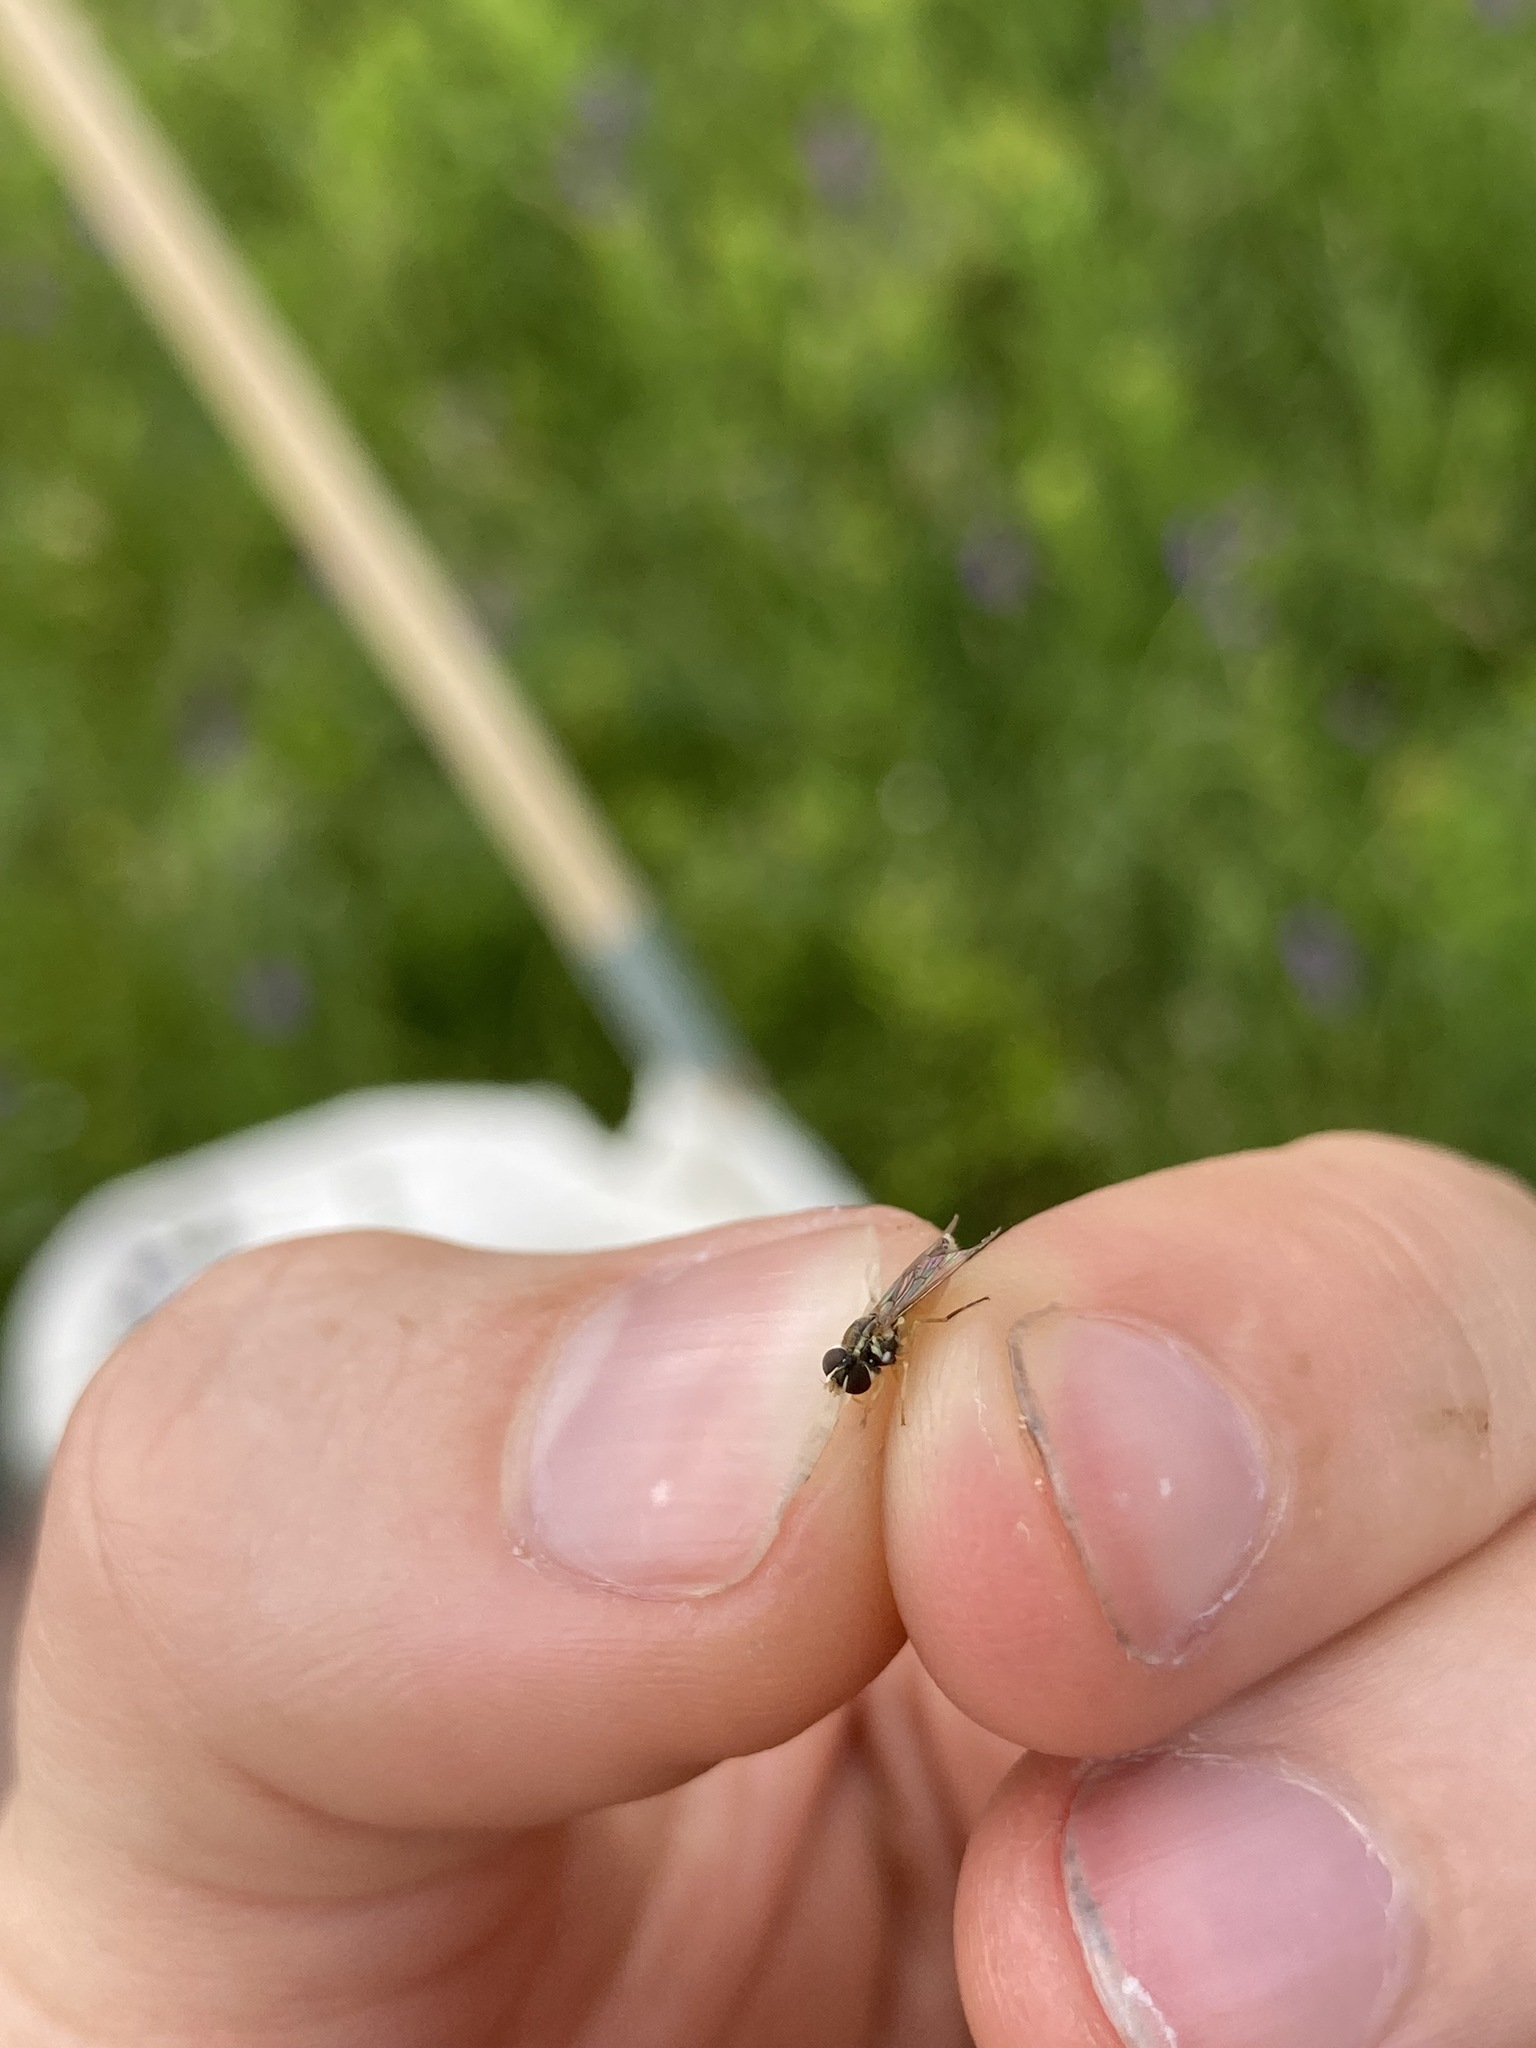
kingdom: Animalia
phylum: Arthropoda
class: Insecta
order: Diptera
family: Syrphidae
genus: Toxomerus
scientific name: Toxomerus marginatus
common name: Syrphid fly
